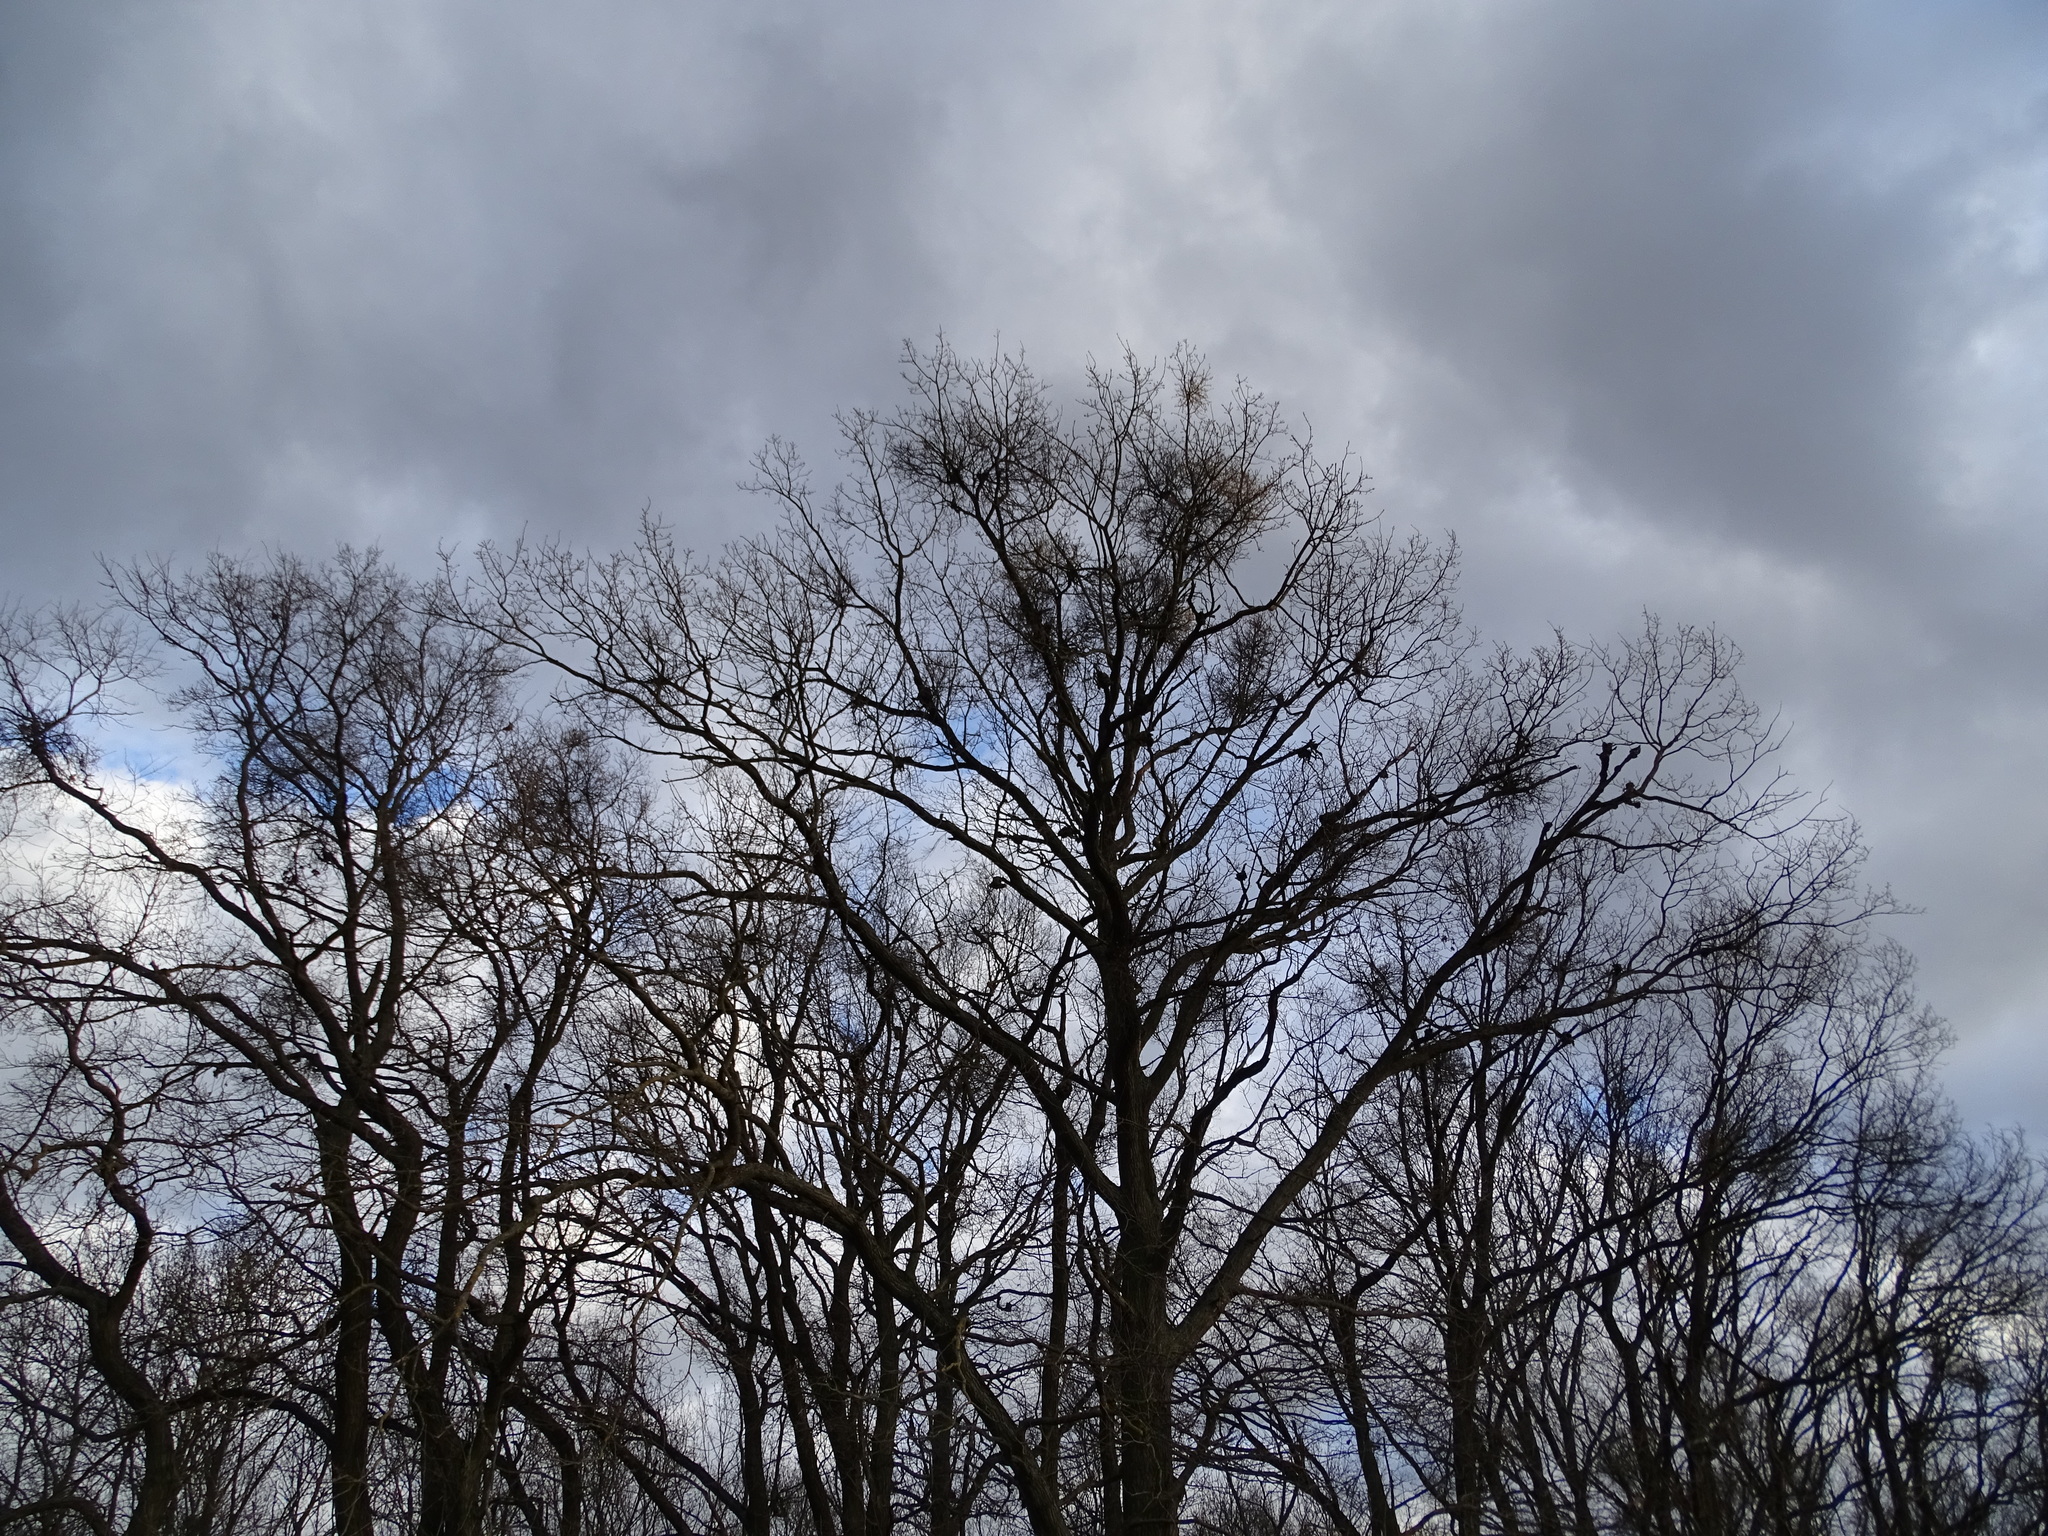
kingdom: Plantae
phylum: Tracheophyta
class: Magnoliopsida
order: Santalales
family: Loranthaceae
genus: Loranthus
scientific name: Loranthus europaeus
